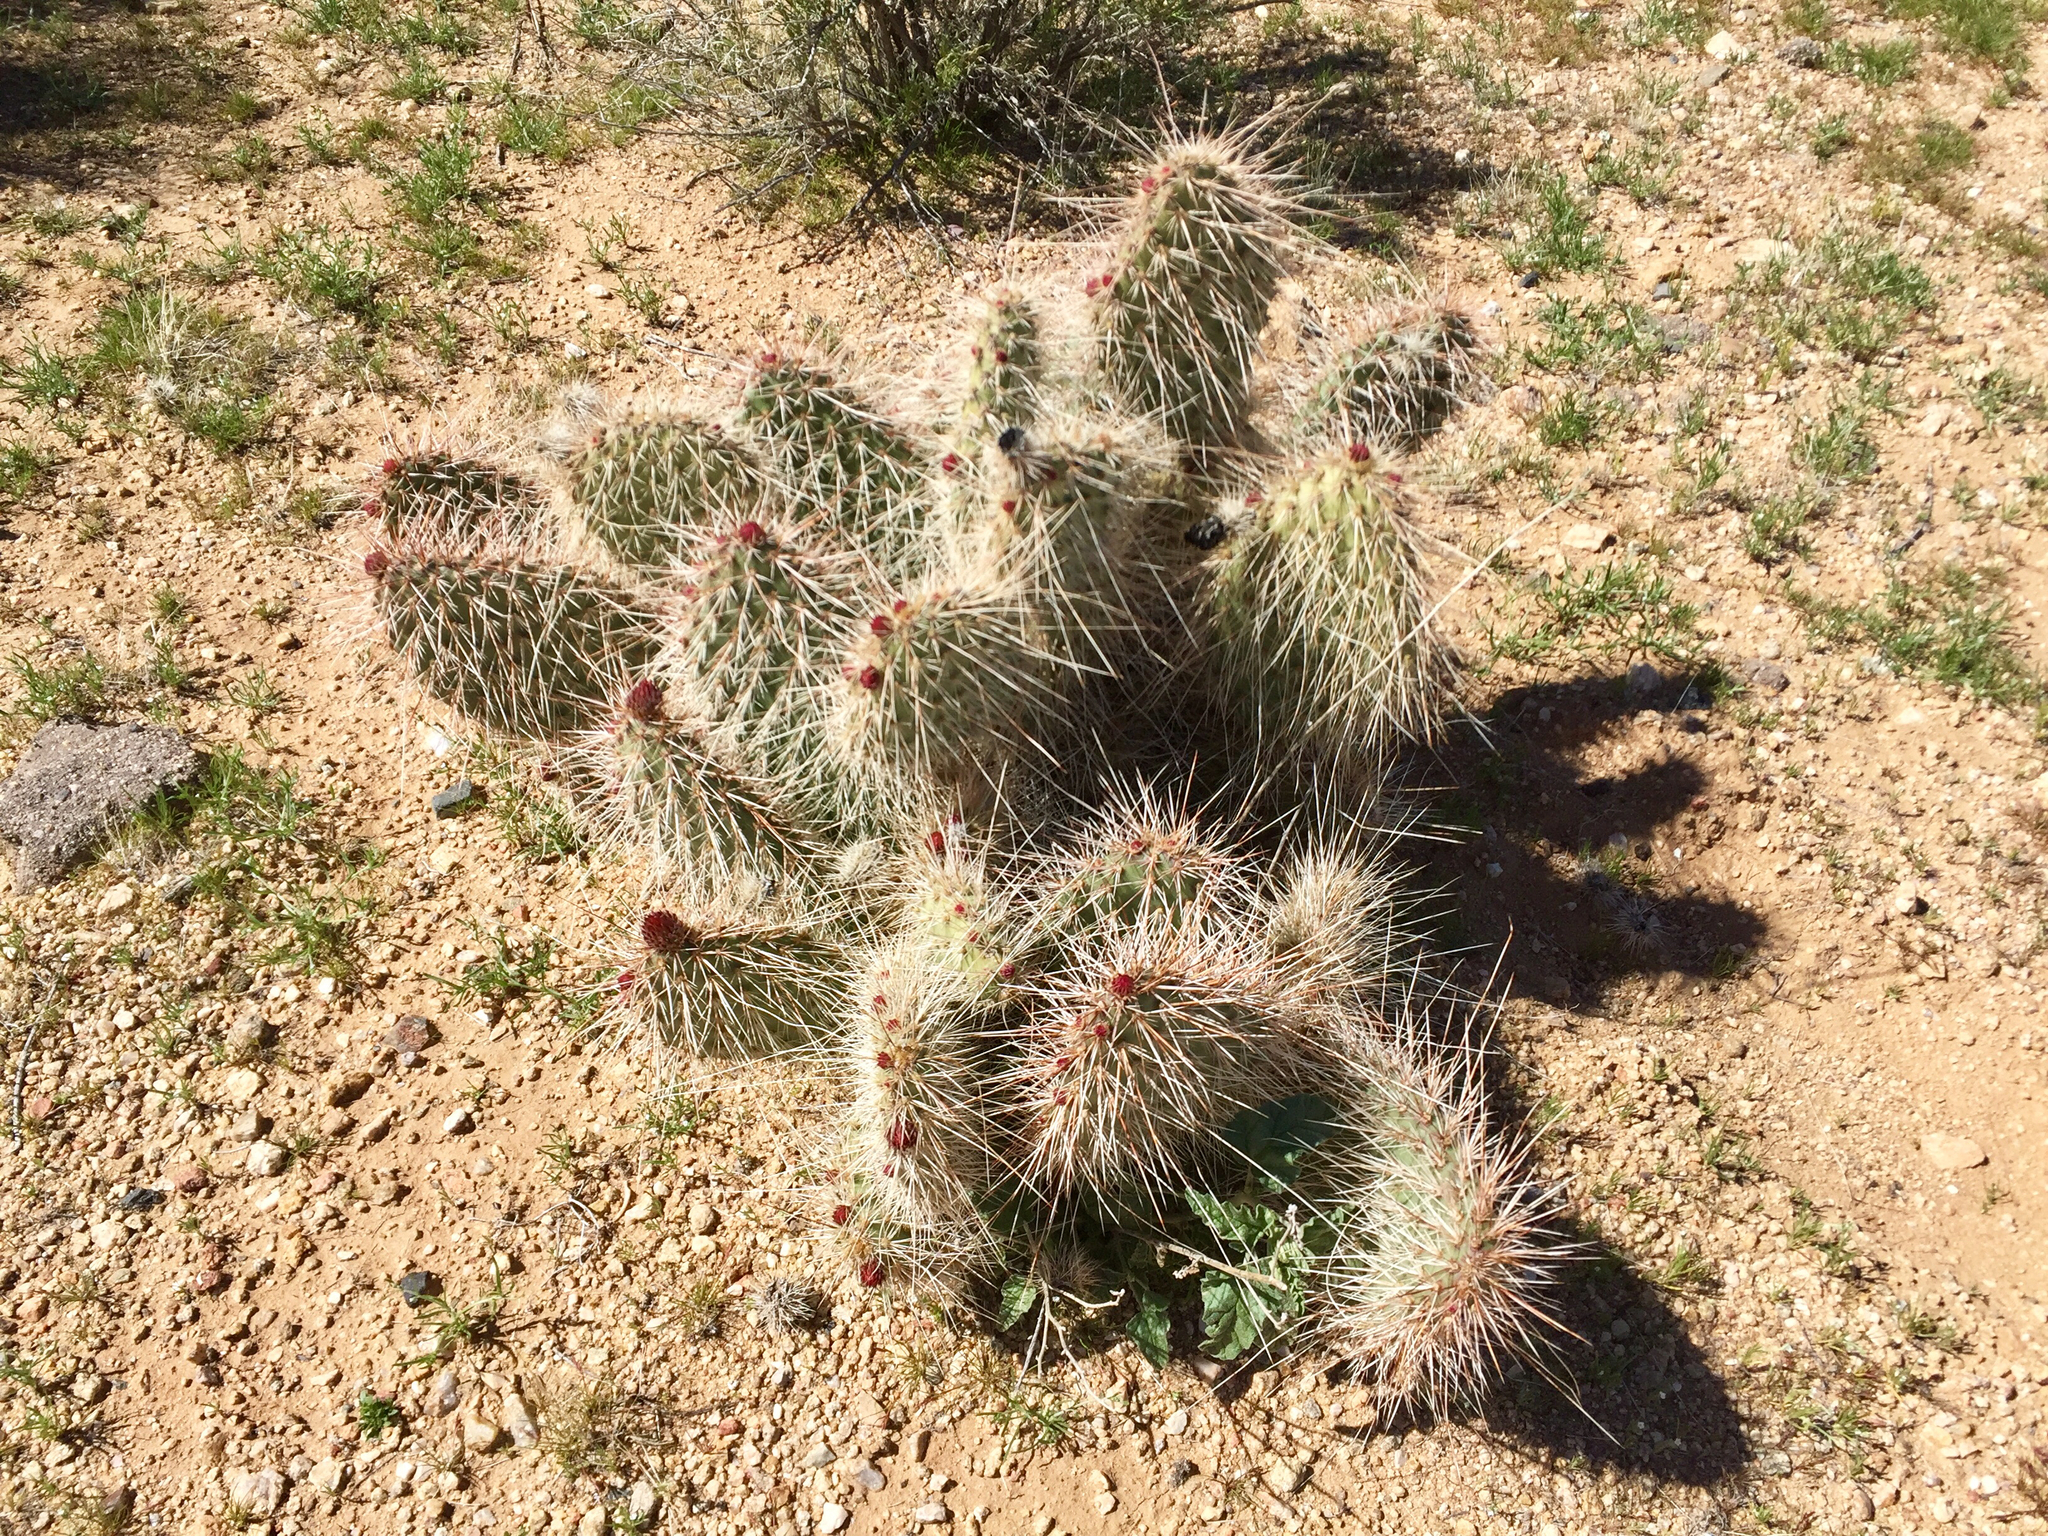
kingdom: Plantae
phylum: Tracheophyta
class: Magnoliopsida
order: Caryophyllales
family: Cactaceae
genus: Opuntia
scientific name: Opuntia polyacantha
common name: Plains prickly-pear
